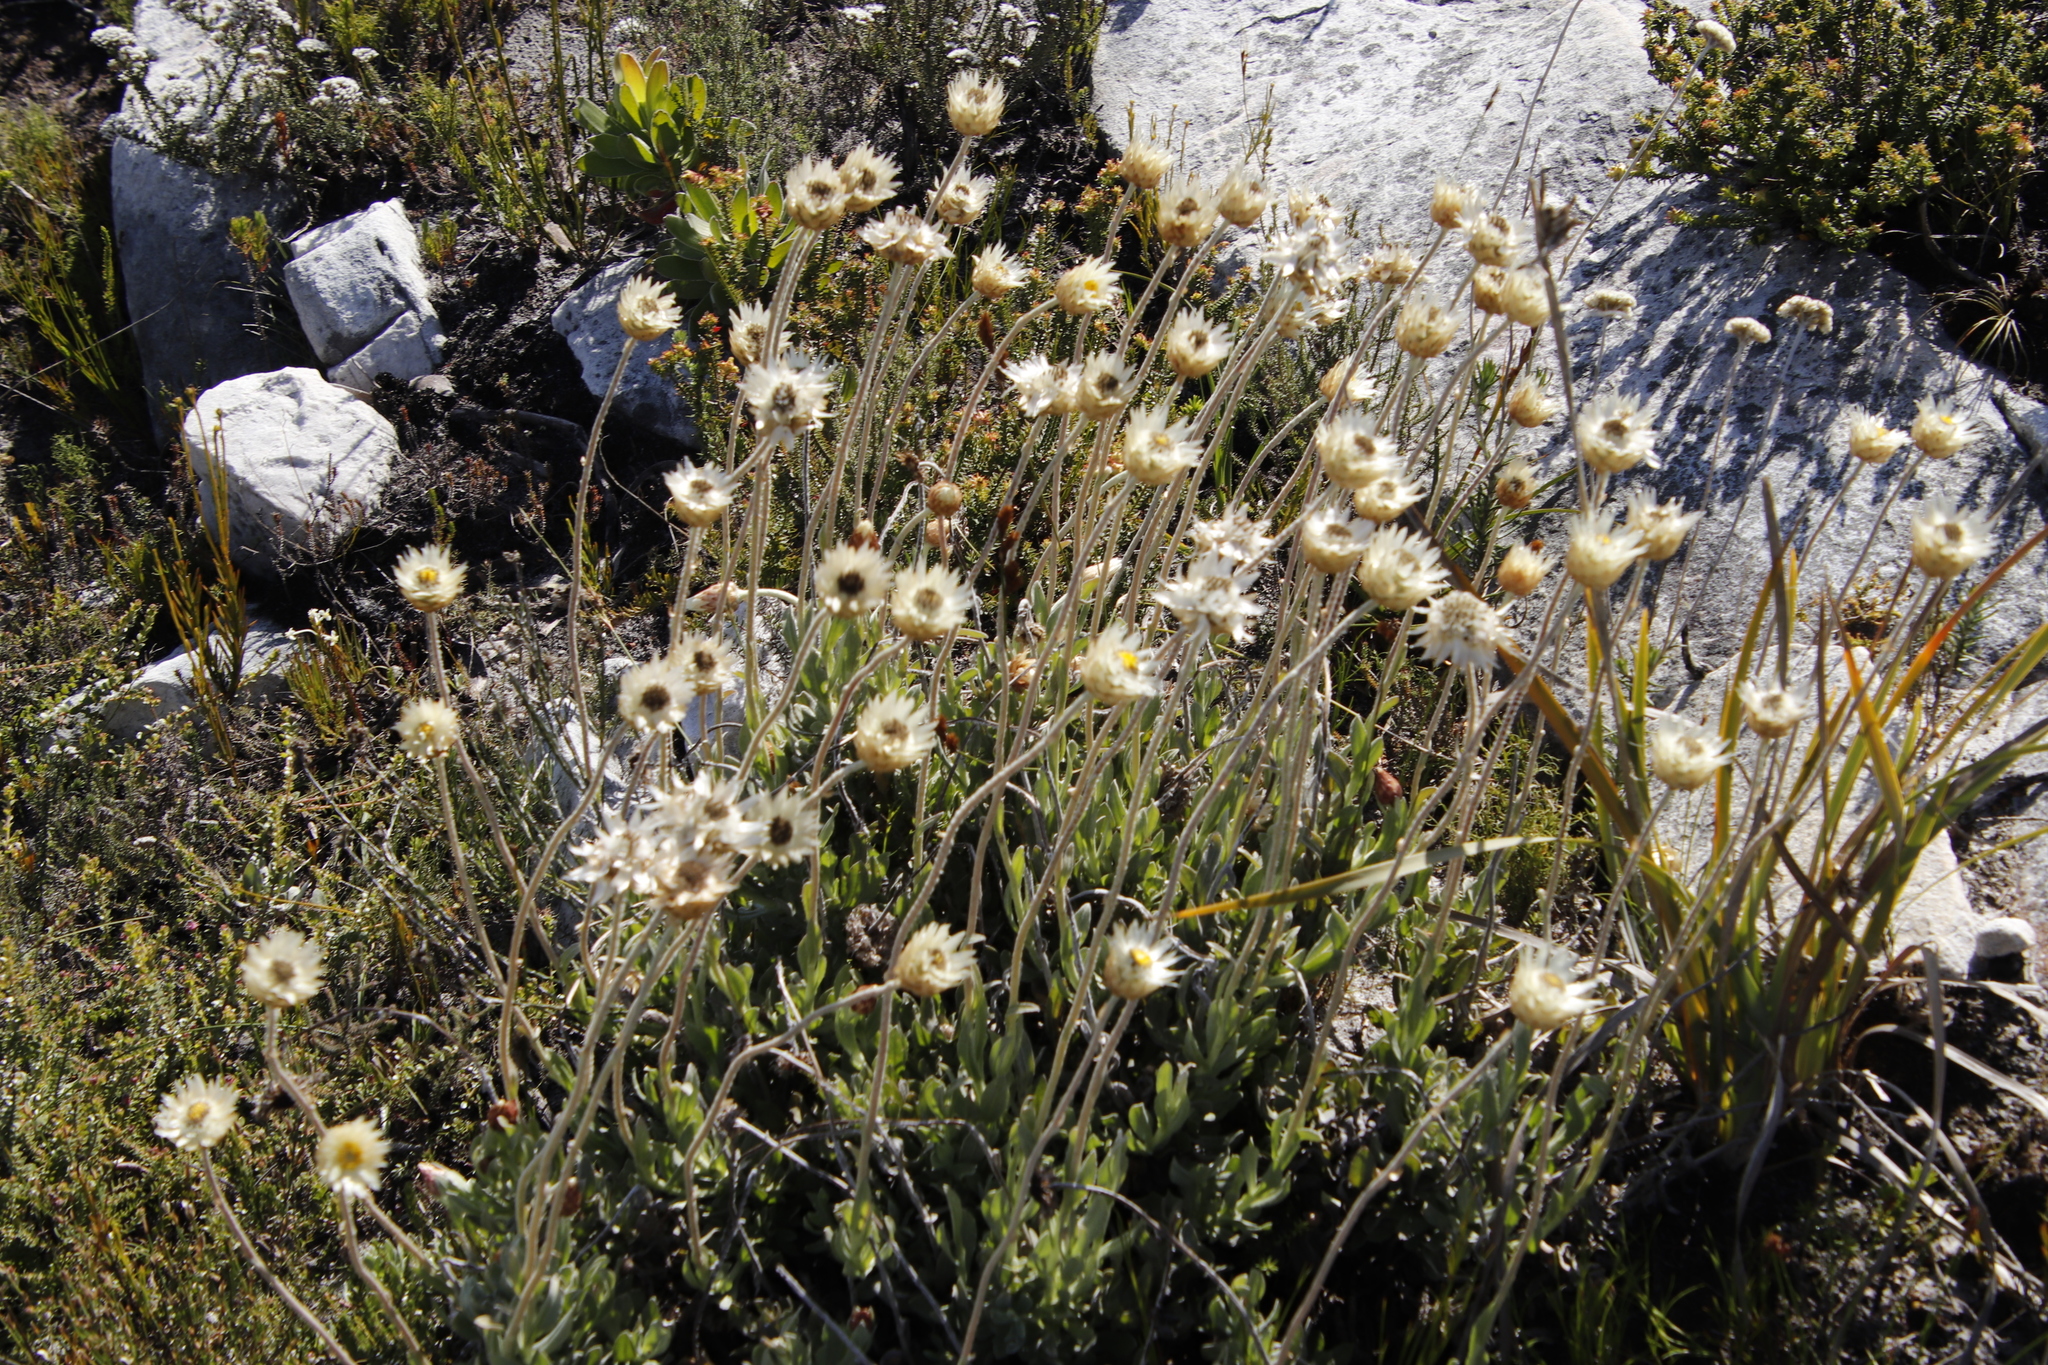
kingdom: Plantae
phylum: Tracheophyta
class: Magnoliopsida
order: Asterales
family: Asteraceae
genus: Syncarpha
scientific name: Syncarpha speciosissima
